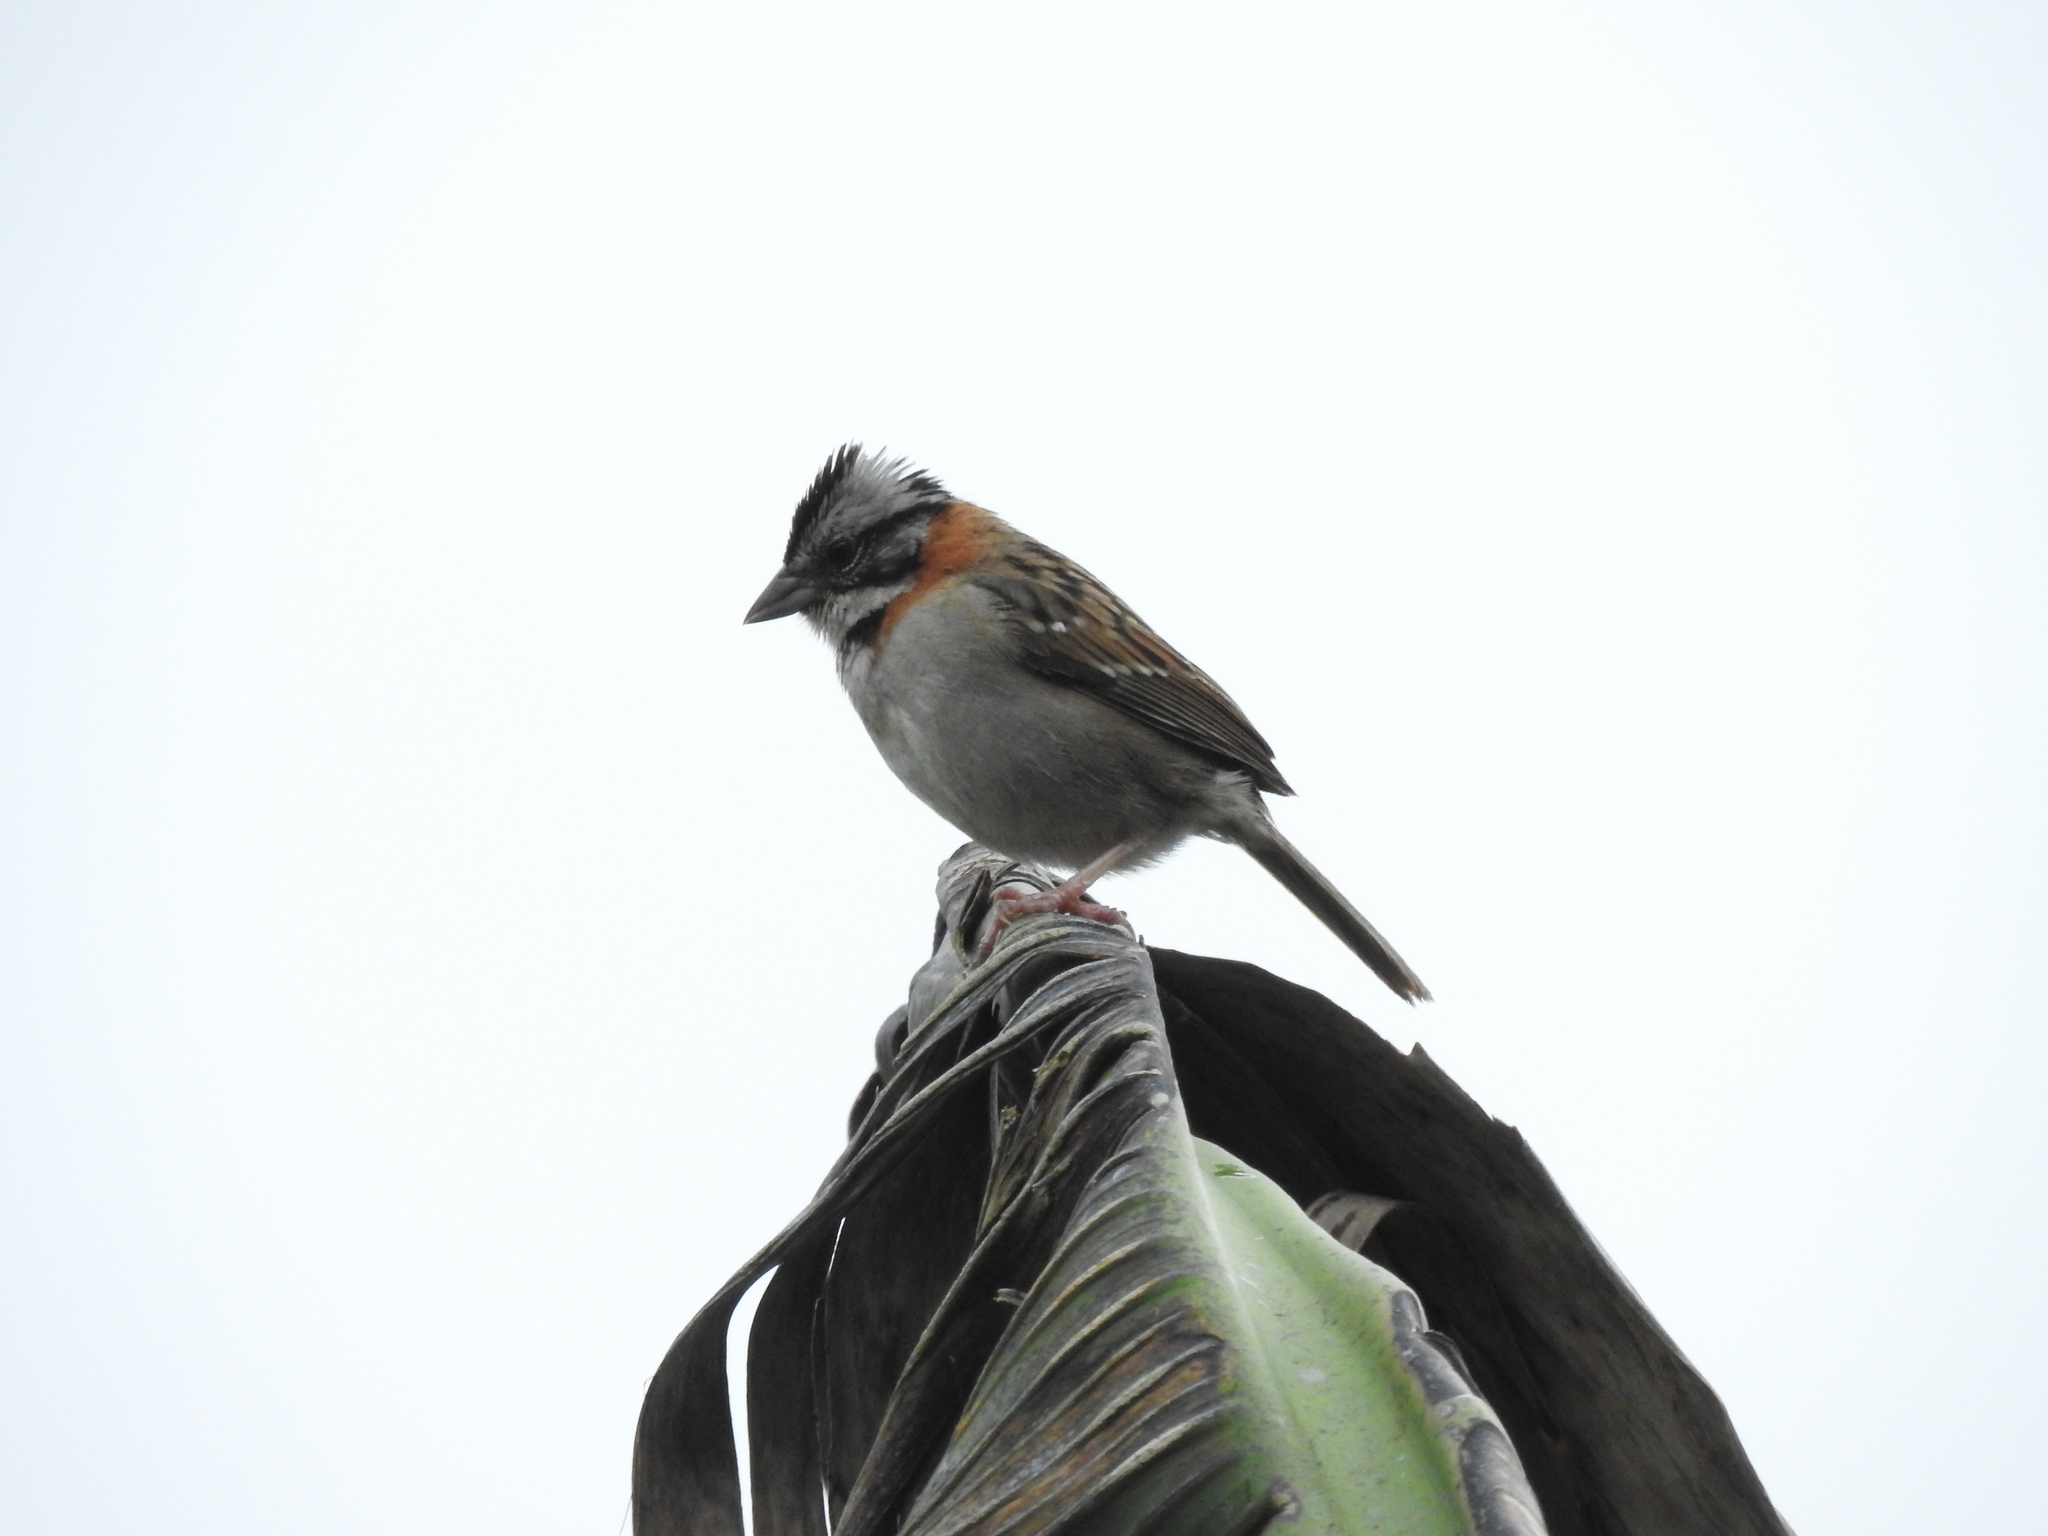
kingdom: Animalia
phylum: Chordata
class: Aves
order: Passeriformes
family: Passerellidae
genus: Zonotrichia
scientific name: Zonotrichia capensis
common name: Rufous-collared sparrow
